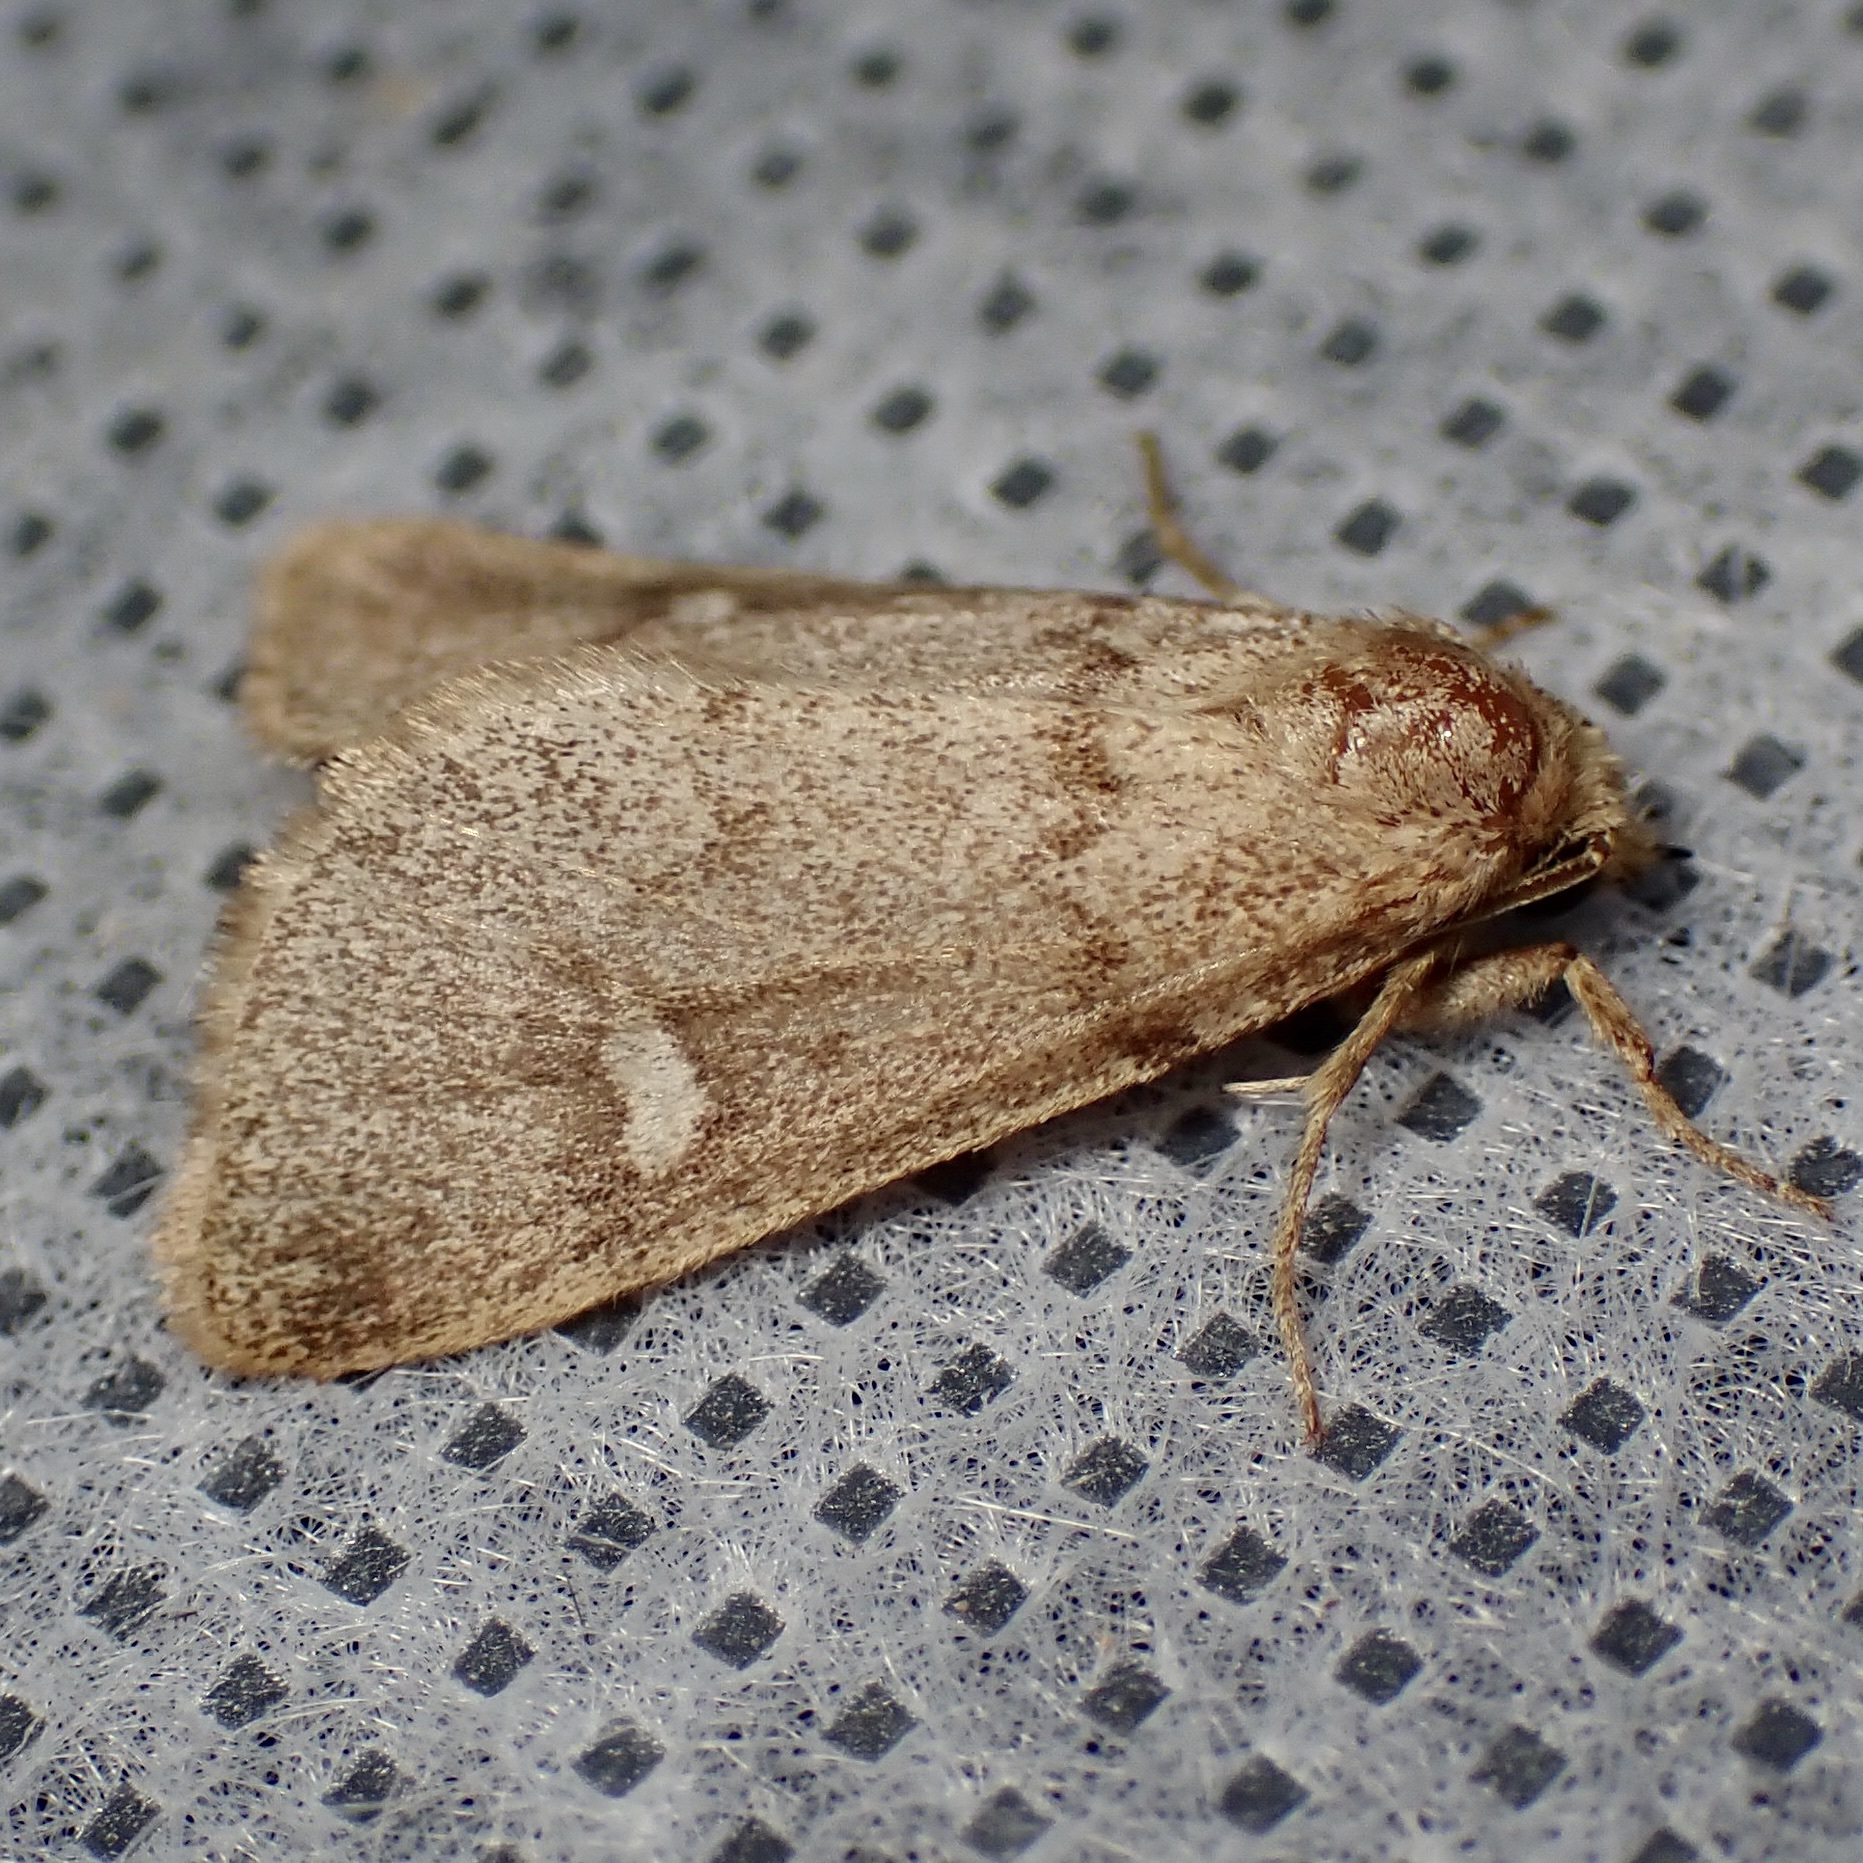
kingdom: Animalia
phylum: Arthropoda
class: Insecta
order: Lepidoptera
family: Noctuidae
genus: Narthecophora
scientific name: Narthecophora pulverea
